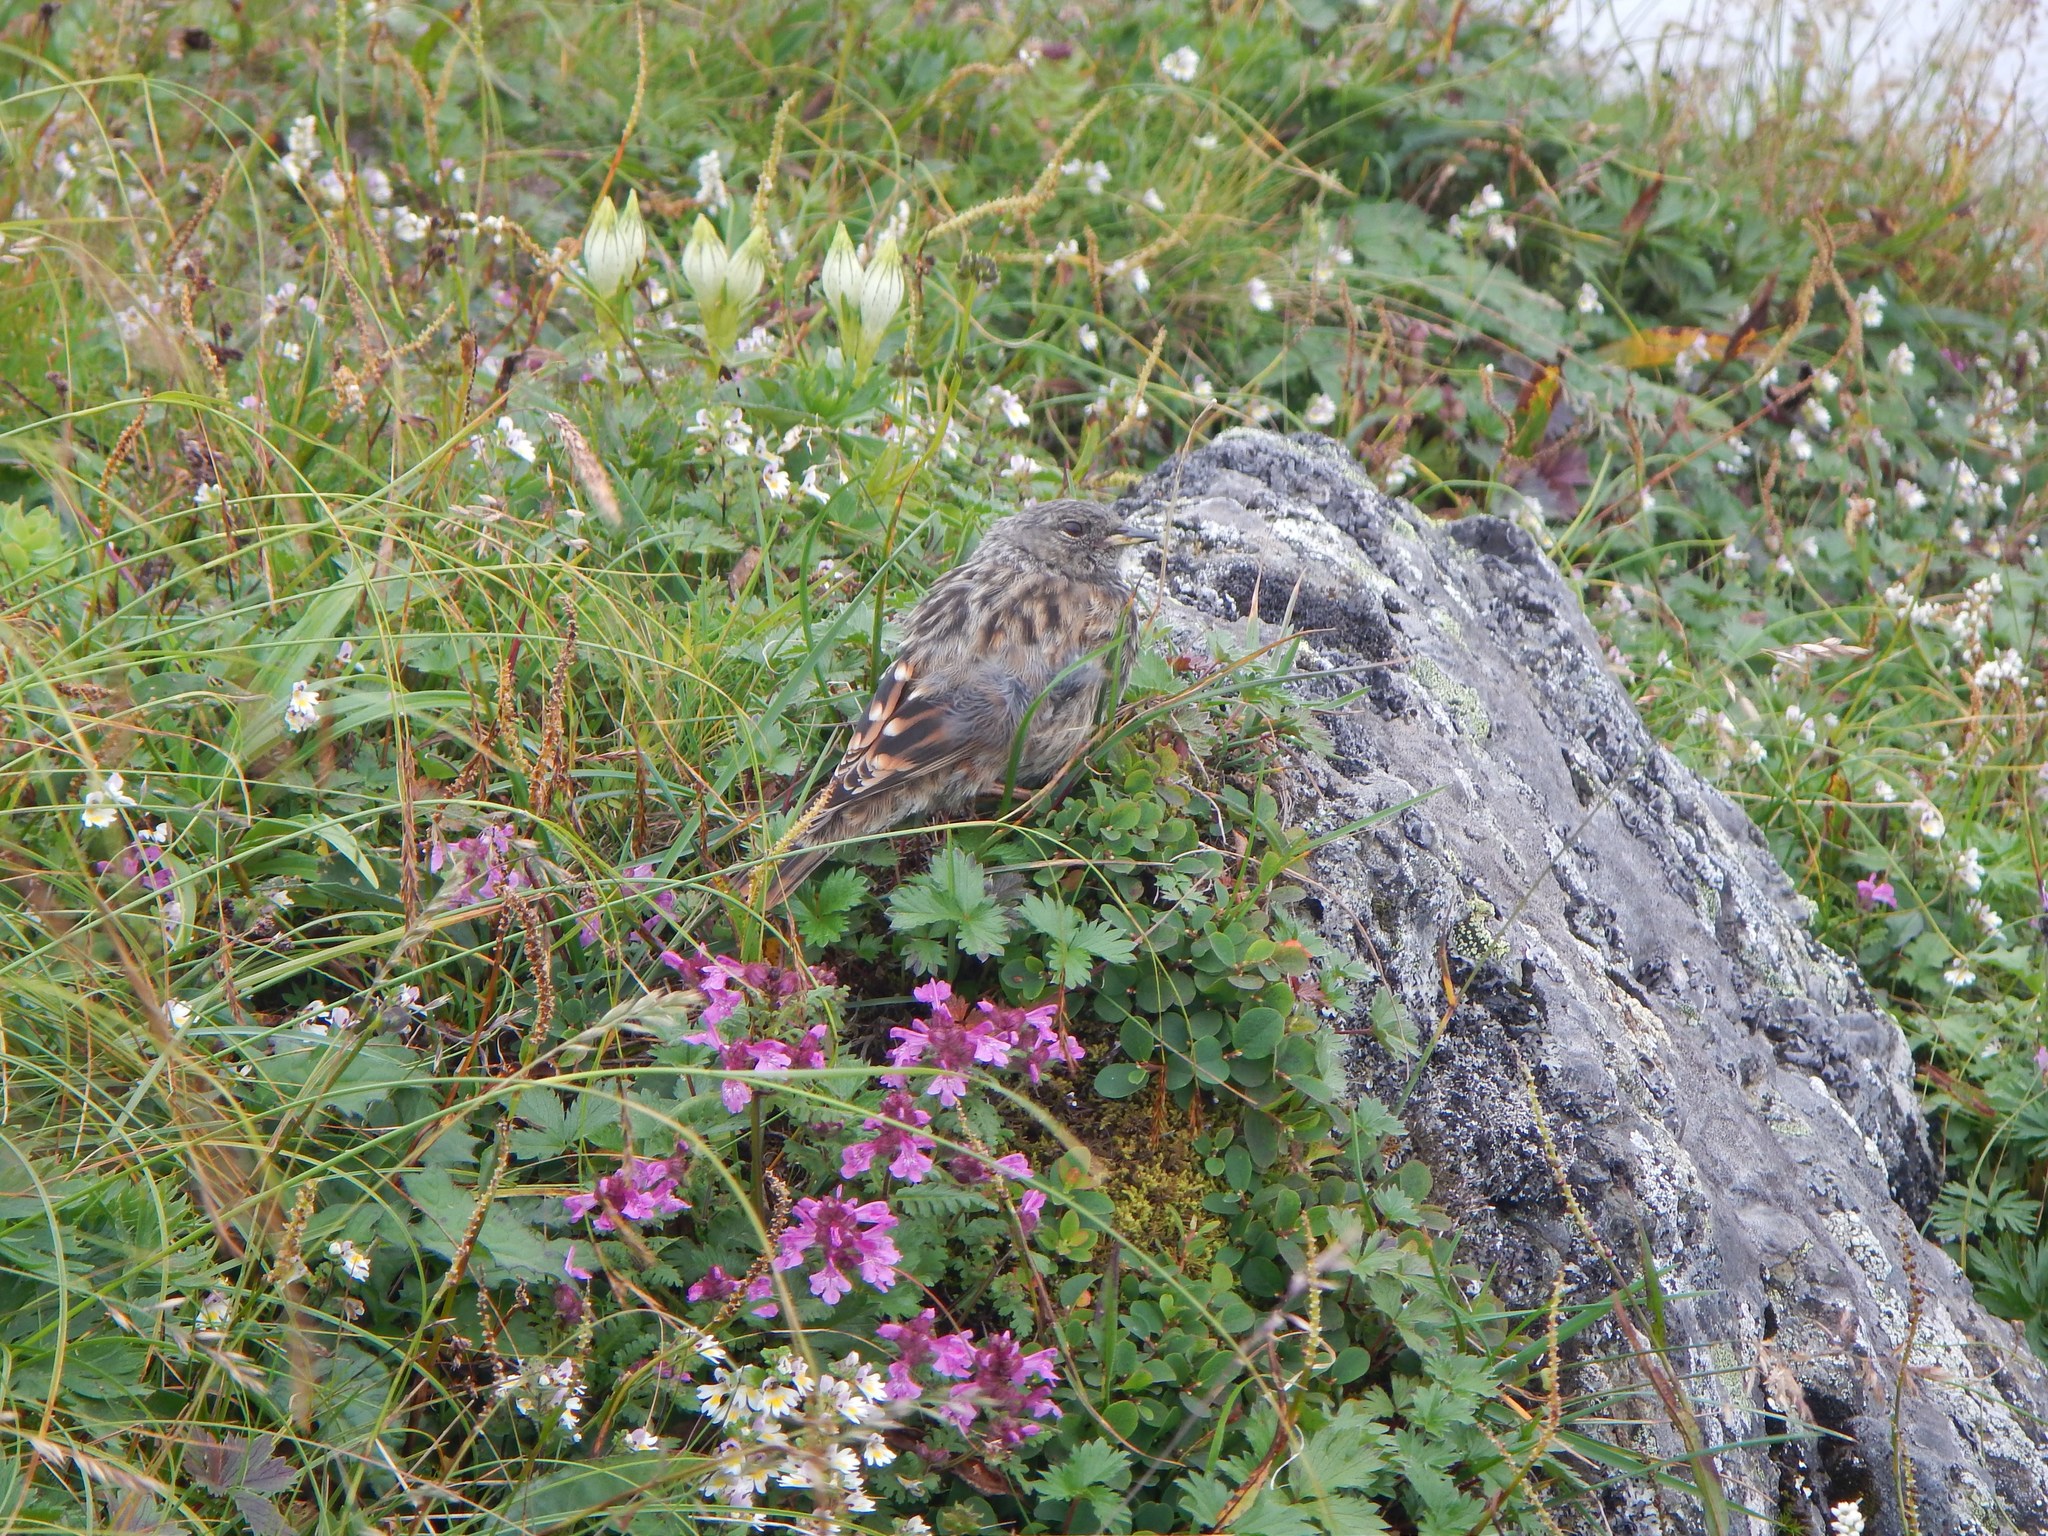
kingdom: Animalia
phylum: Chordata
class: Aves
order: Passeriformes
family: Prunellidae
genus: Prunella
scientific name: Prunella collaris
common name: Alpine accentor
